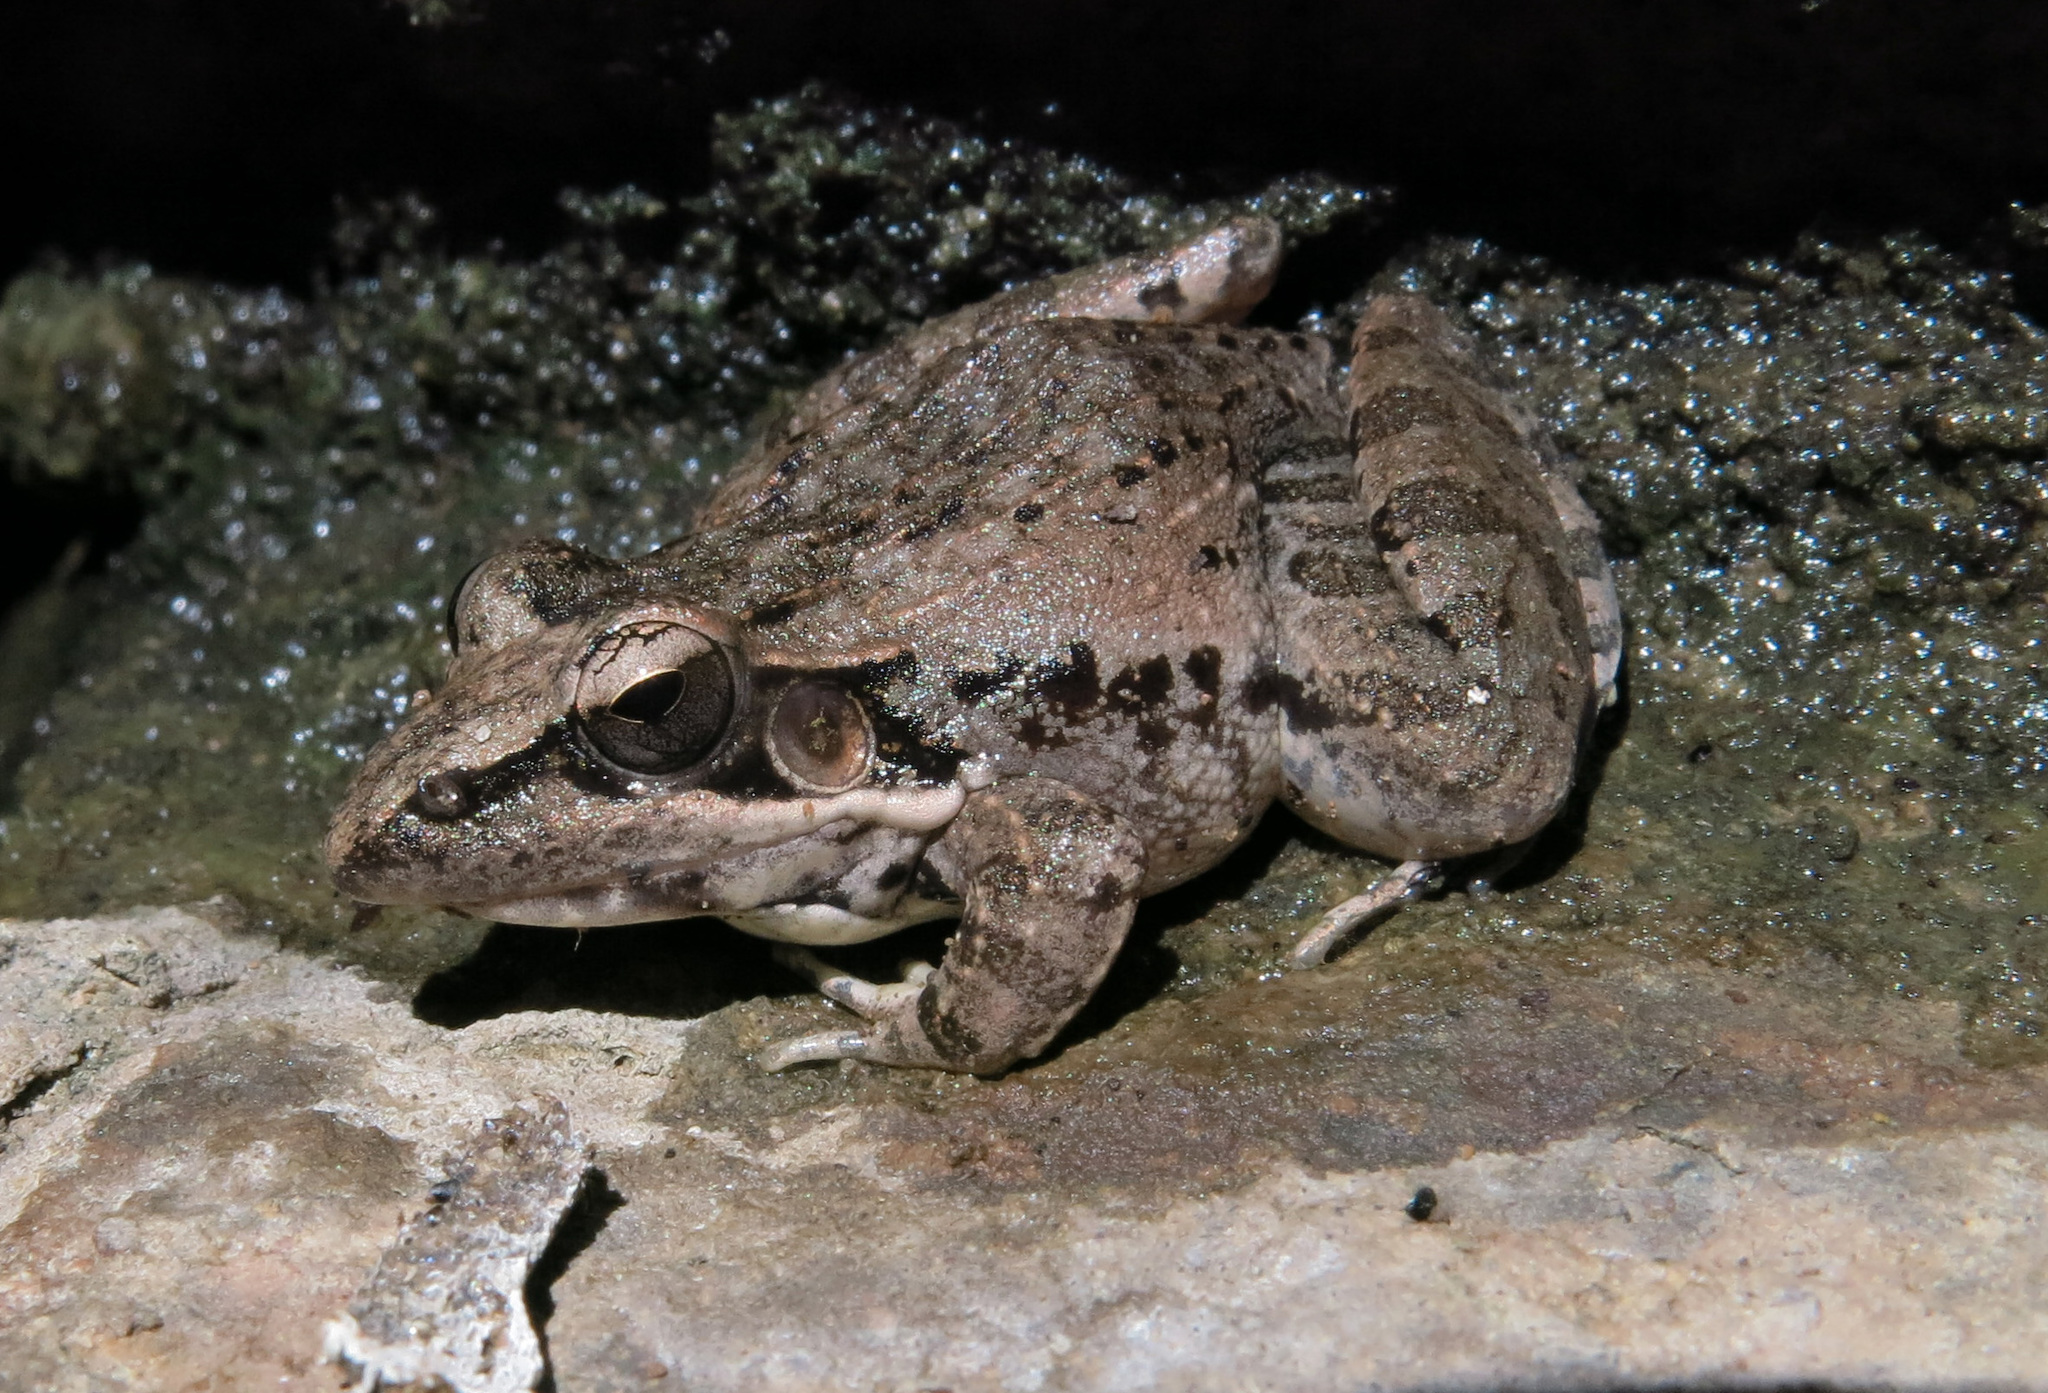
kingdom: Animalia
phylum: Chordata
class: Amphibia
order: Anura
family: Ptychadenidae
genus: Ptychadena
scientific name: Ptychadena anchietae
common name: Anchieta's ridged frog
